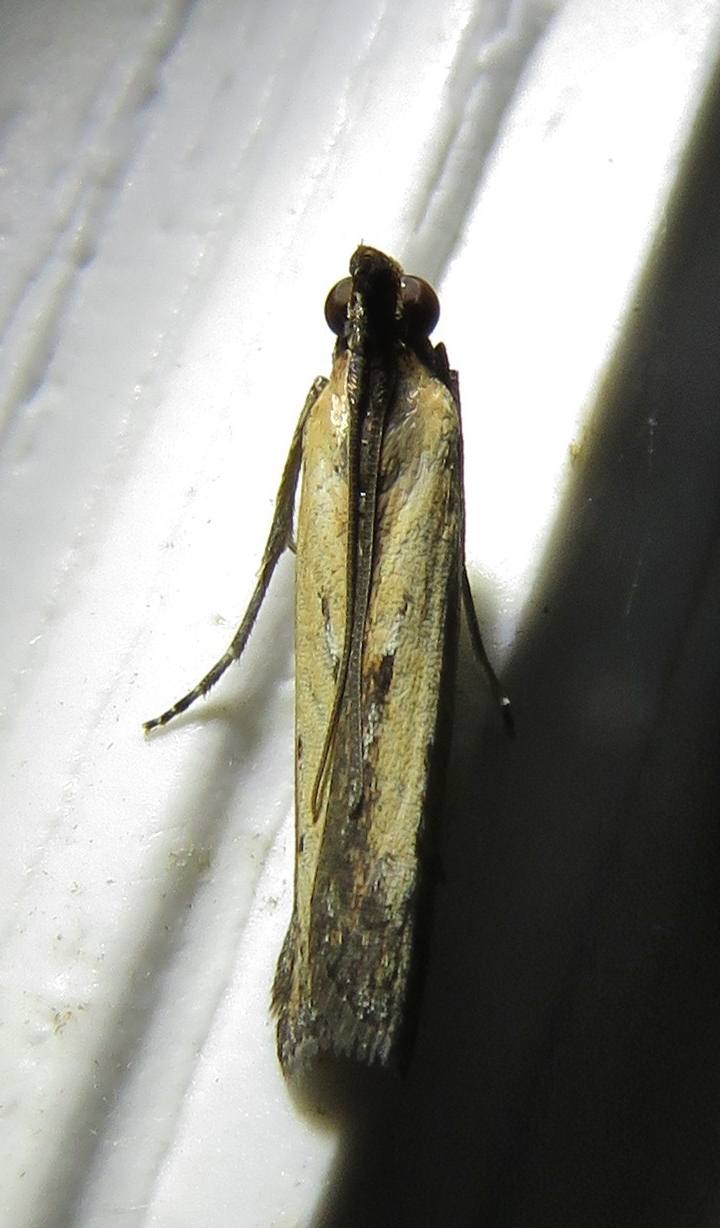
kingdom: Animalia
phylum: Arthropoda
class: Insecta
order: Lepidoptera
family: Pyralidae
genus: Elasmopalpus
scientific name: Elasmopalpus lignosella
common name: Lesser cornstalk borer
